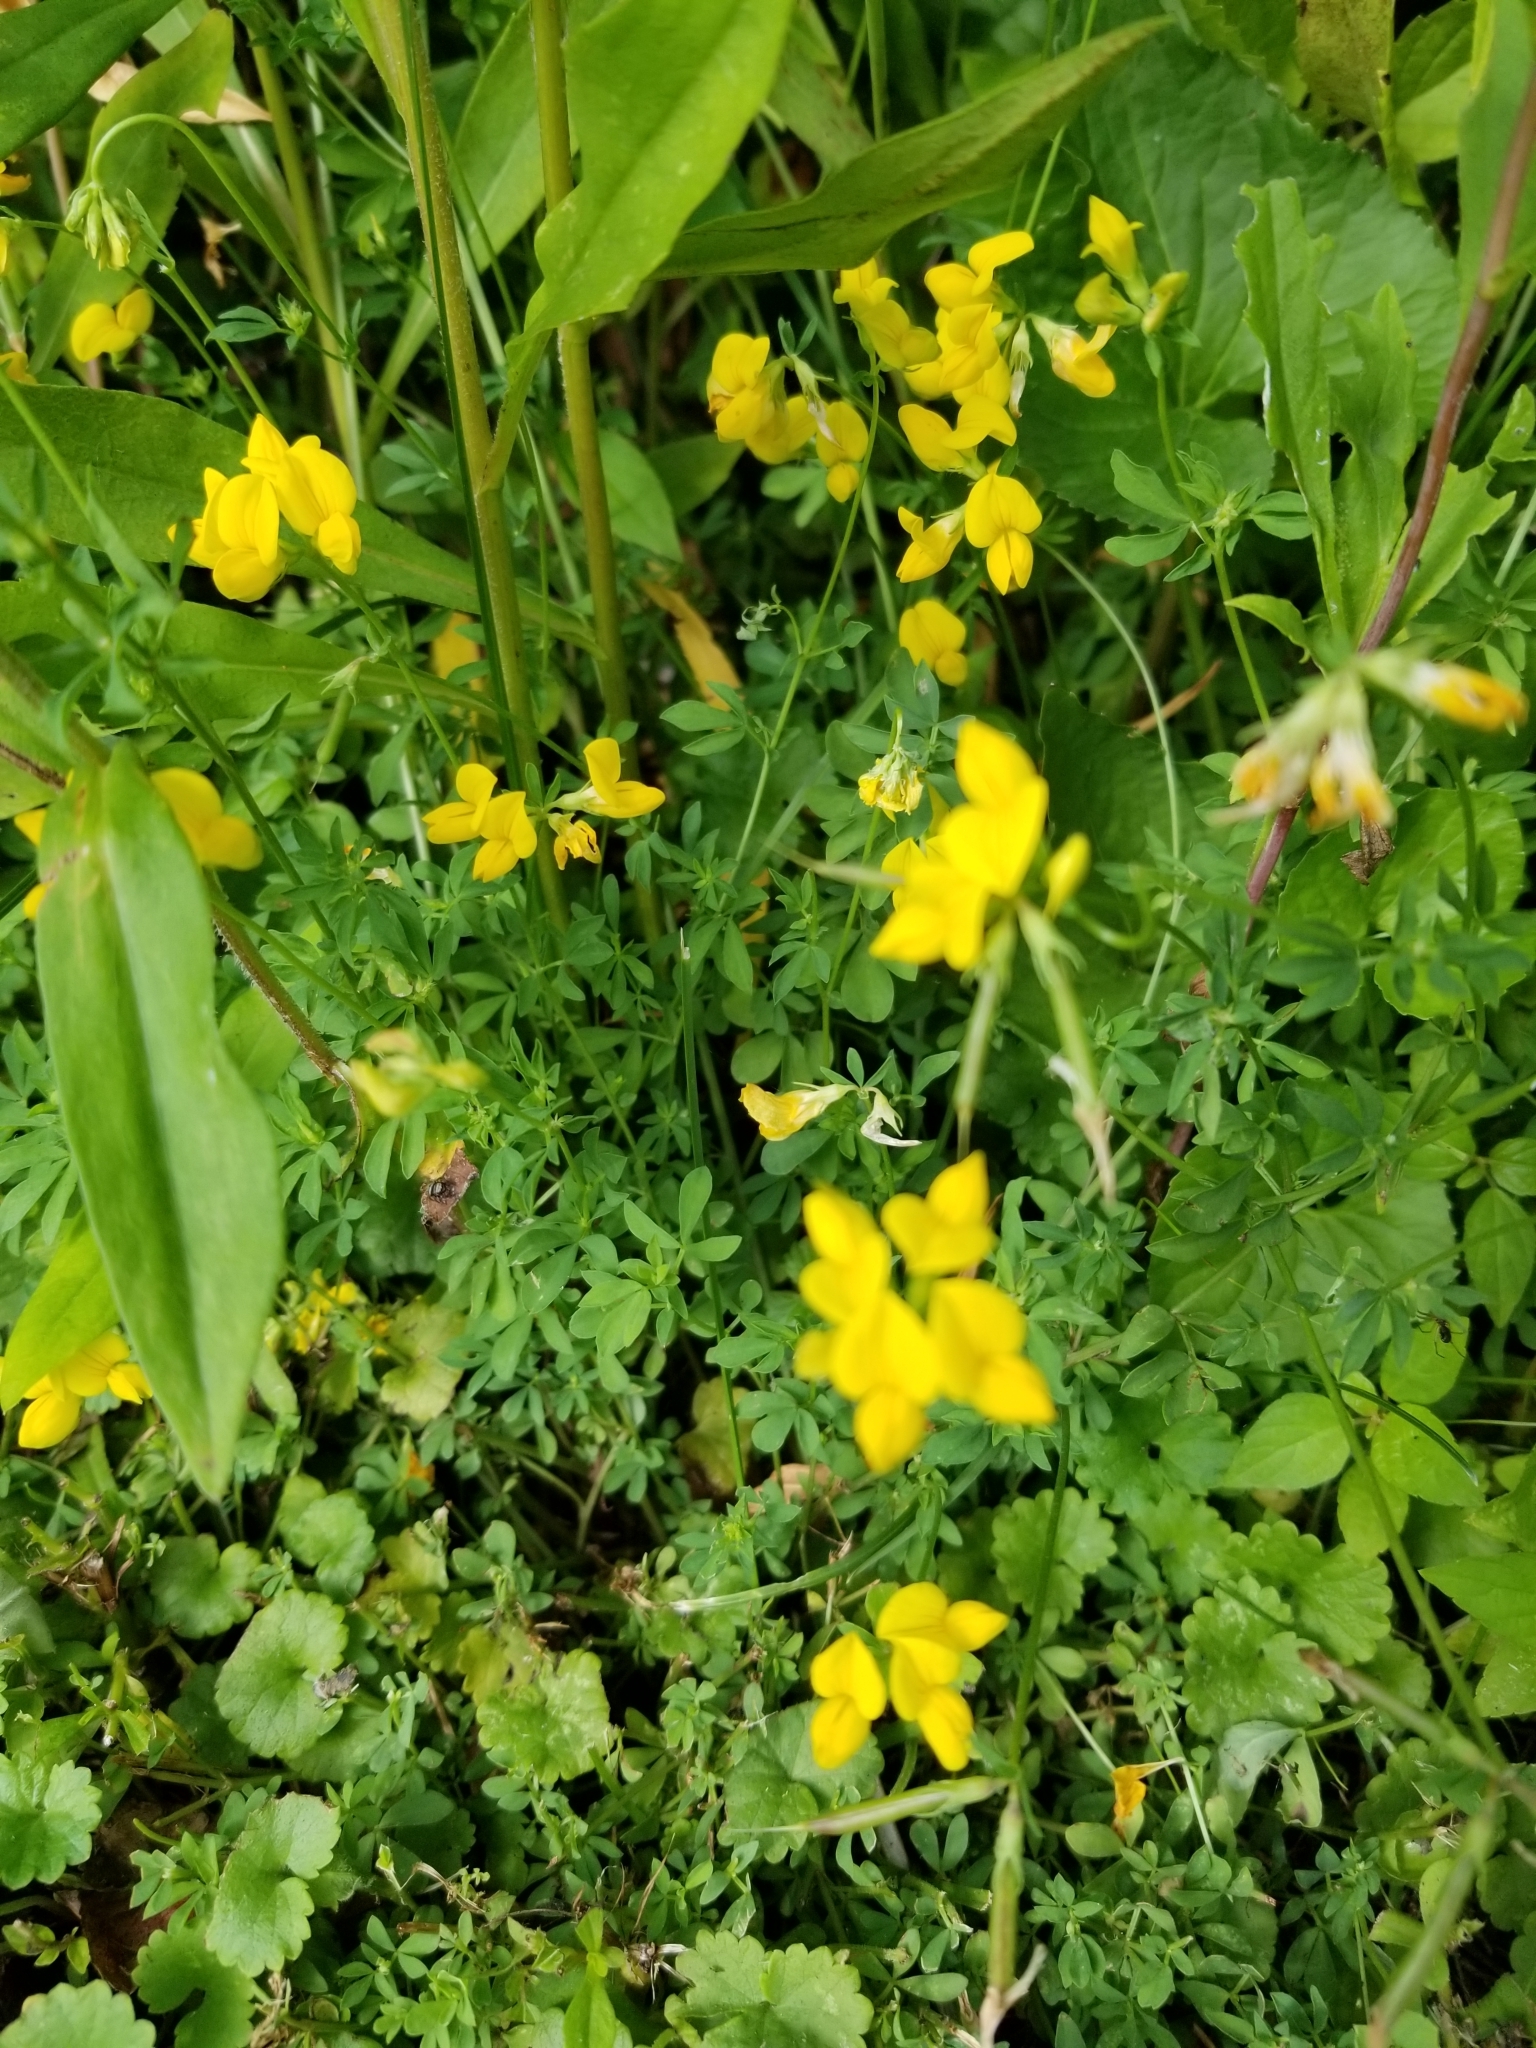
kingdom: Plantae
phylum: Tracheophyta
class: Magnoliopsida
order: Fabales
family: Fabaceae
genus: Lotus
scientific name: Lotus corniculatus
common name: Common bird's-foot-trefoil
